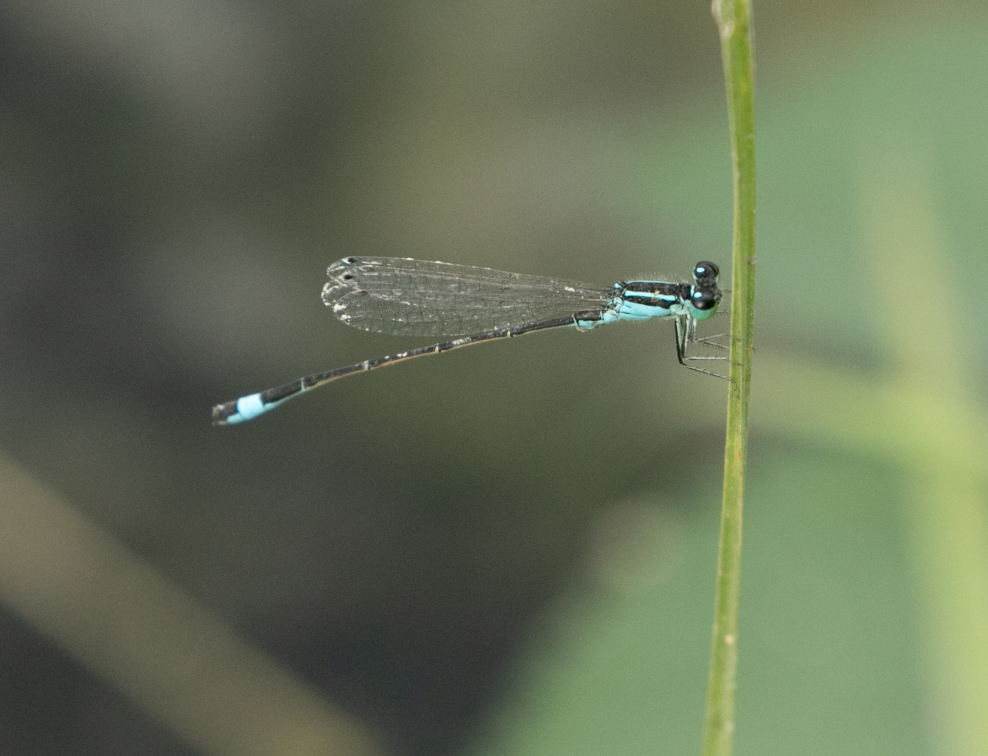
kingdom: Animalia
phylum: Arthropoda
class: Insecta
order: Odonata
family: Coenagrionidae
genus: Ischnura
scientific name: Ischnura elegans
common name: Blue-tailed damselfly
